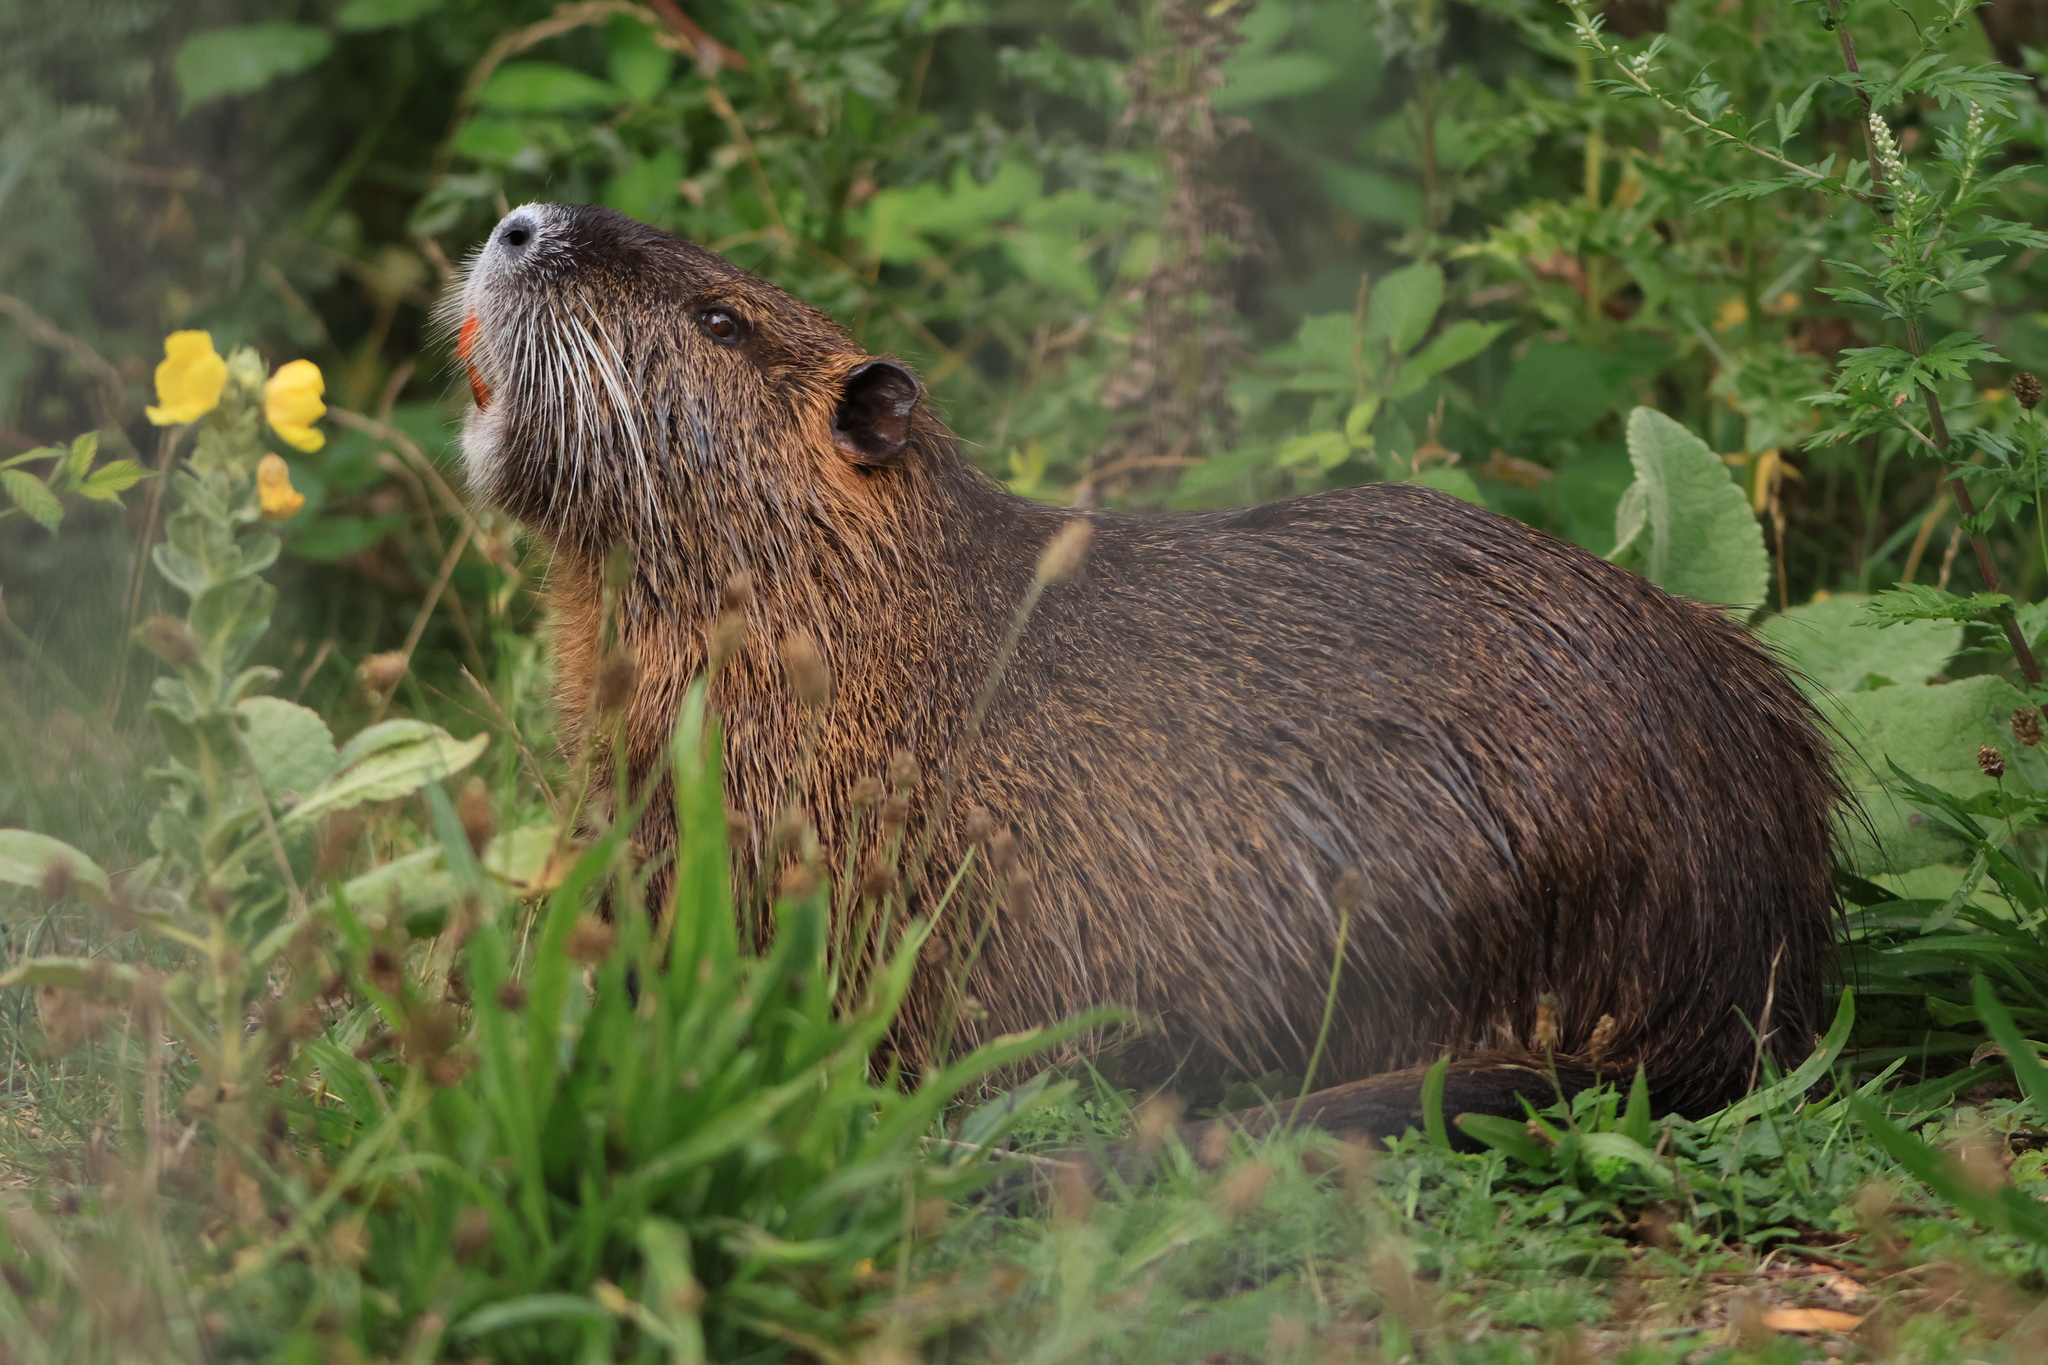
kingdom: Animalia
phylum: Chordata
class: Mammalia
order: Rodentia
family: Myocastoridae
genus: Myocastor
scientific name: Myocastor coypus
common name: Coypu
